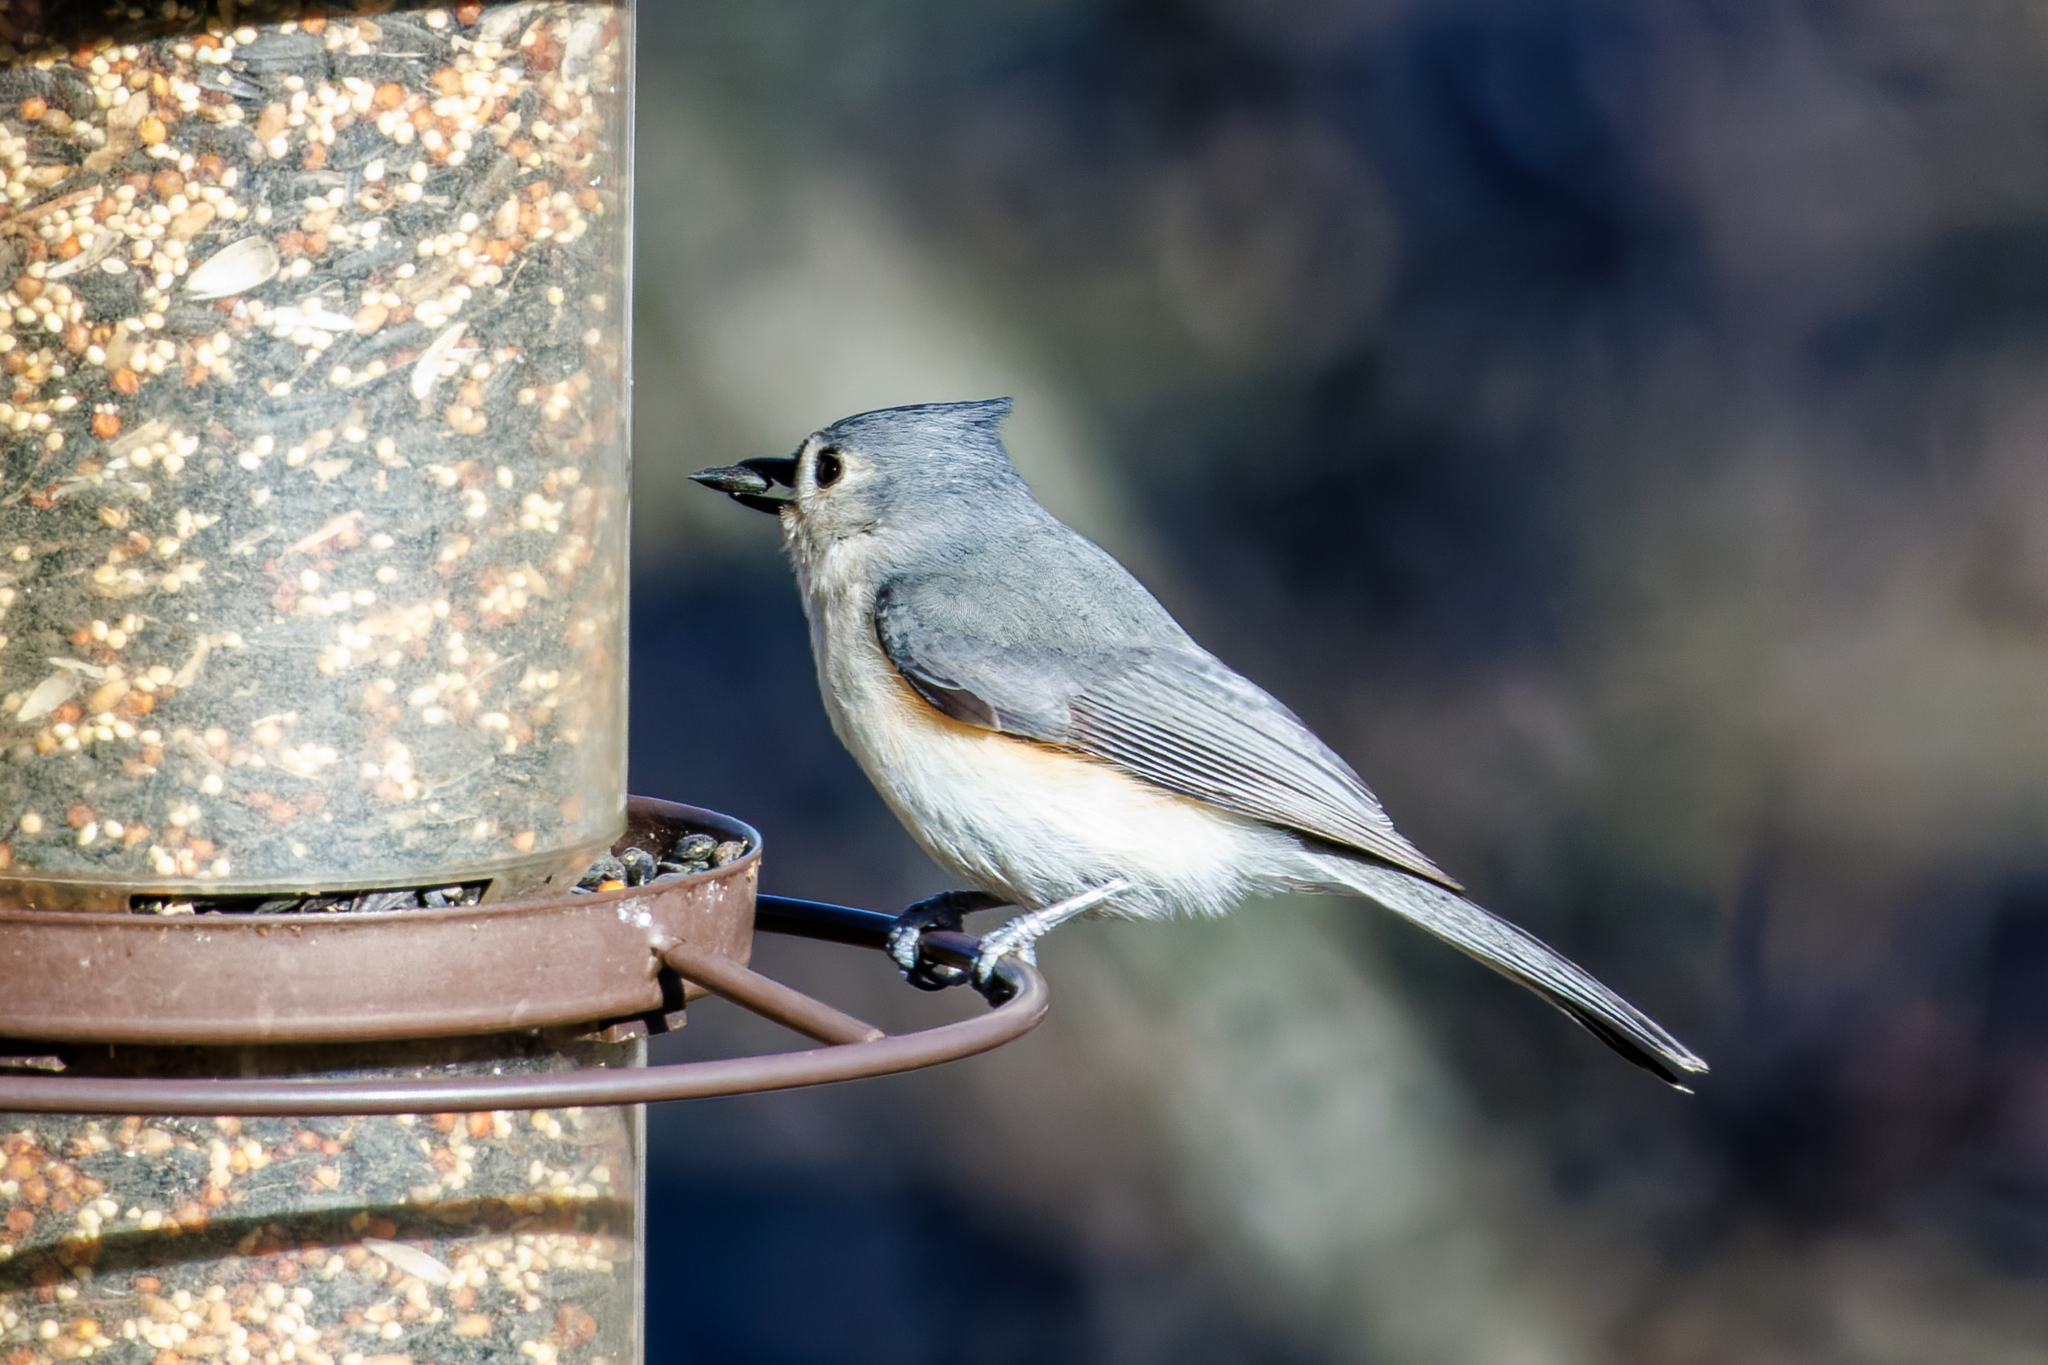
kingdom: Animalia
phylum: Chordata
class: Aves
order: Passeriformes
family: Paridae
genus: Baeolophus
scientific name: Baeolophus bicolor
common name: Tufted titmouse
